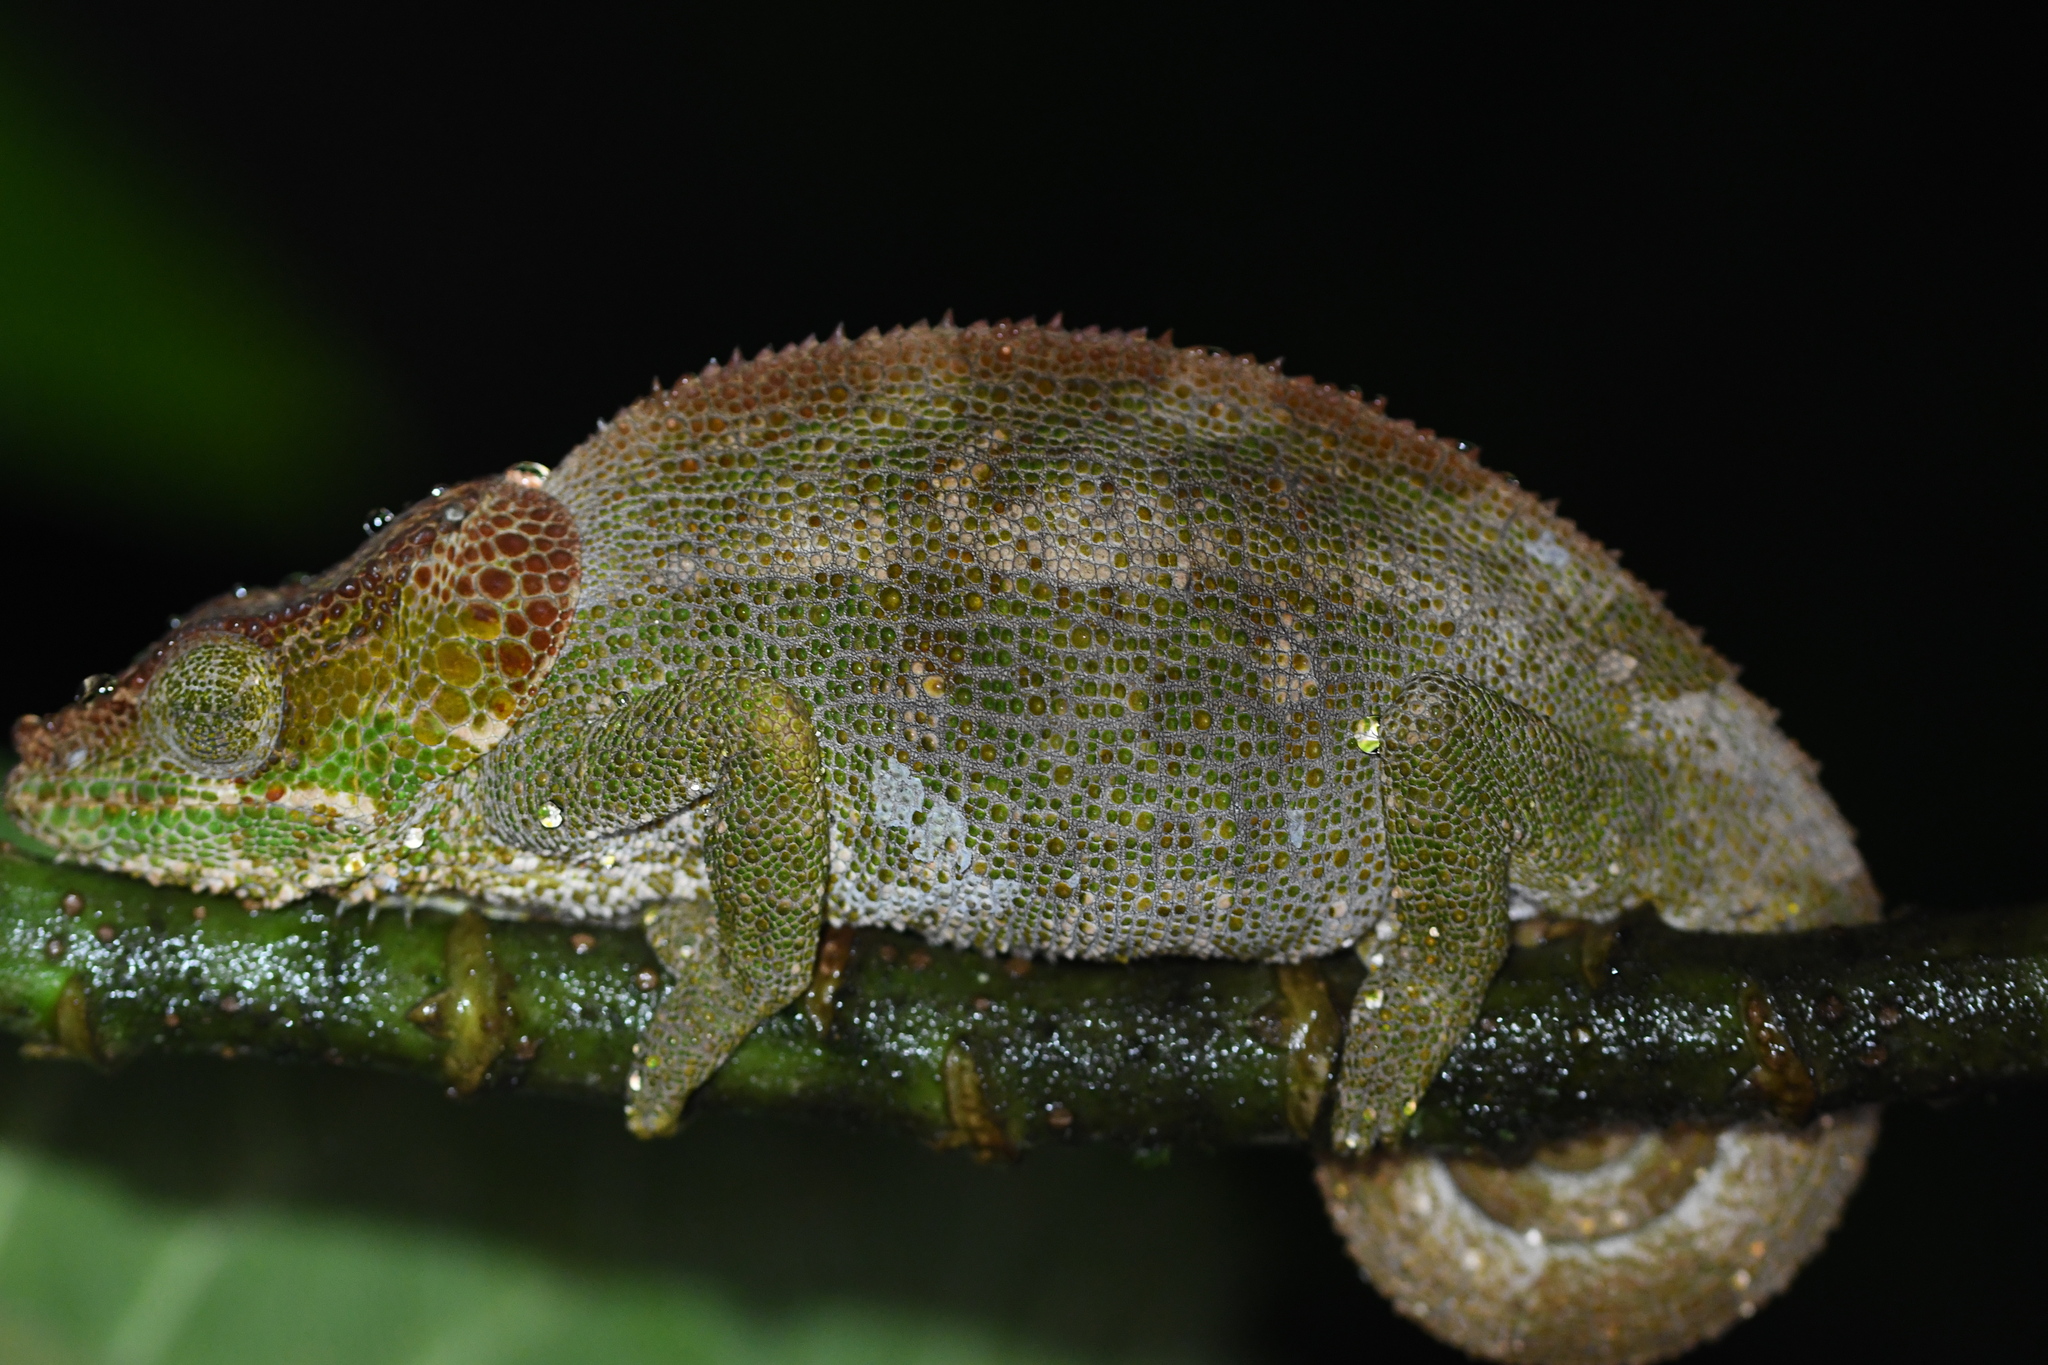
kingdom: Animalia
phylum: Chordata
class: Squamata
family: Chamaeleonidae
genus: Calumma
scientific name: Calumma crypticum
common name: Cryptic chameleon
